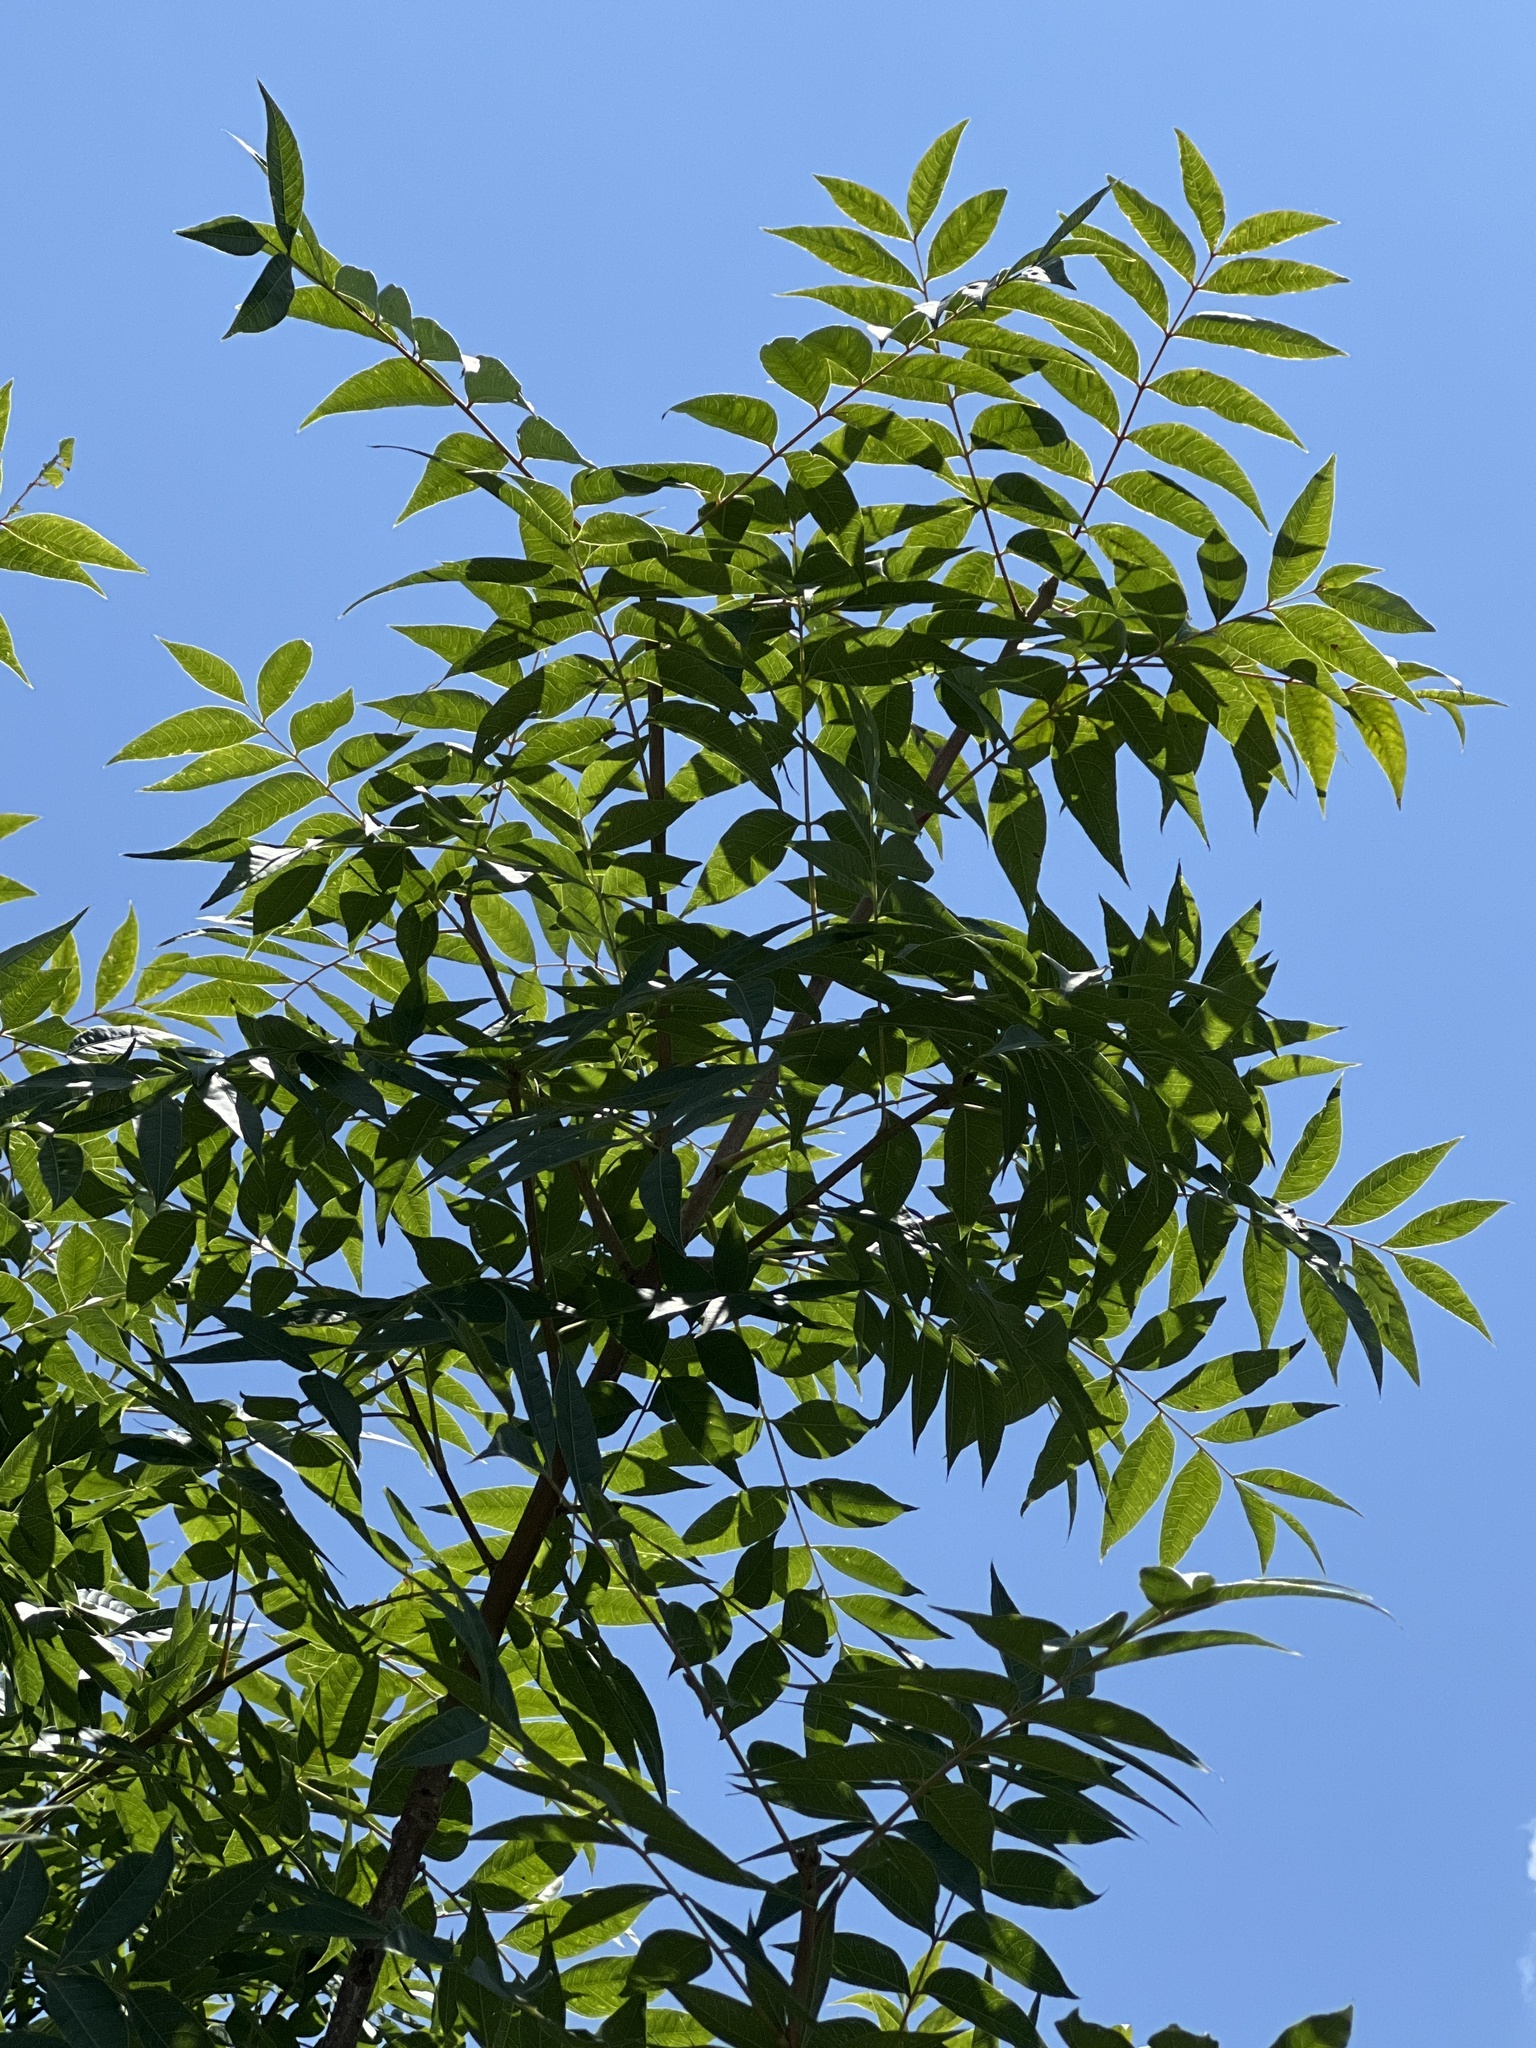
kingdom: Plantae
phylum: Tracheophyta
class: Magnoliopsida
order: Sapindales
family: Anacardiaceae
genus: Pistacia
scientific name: Pistacia chinensis
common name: Chinese pistache
